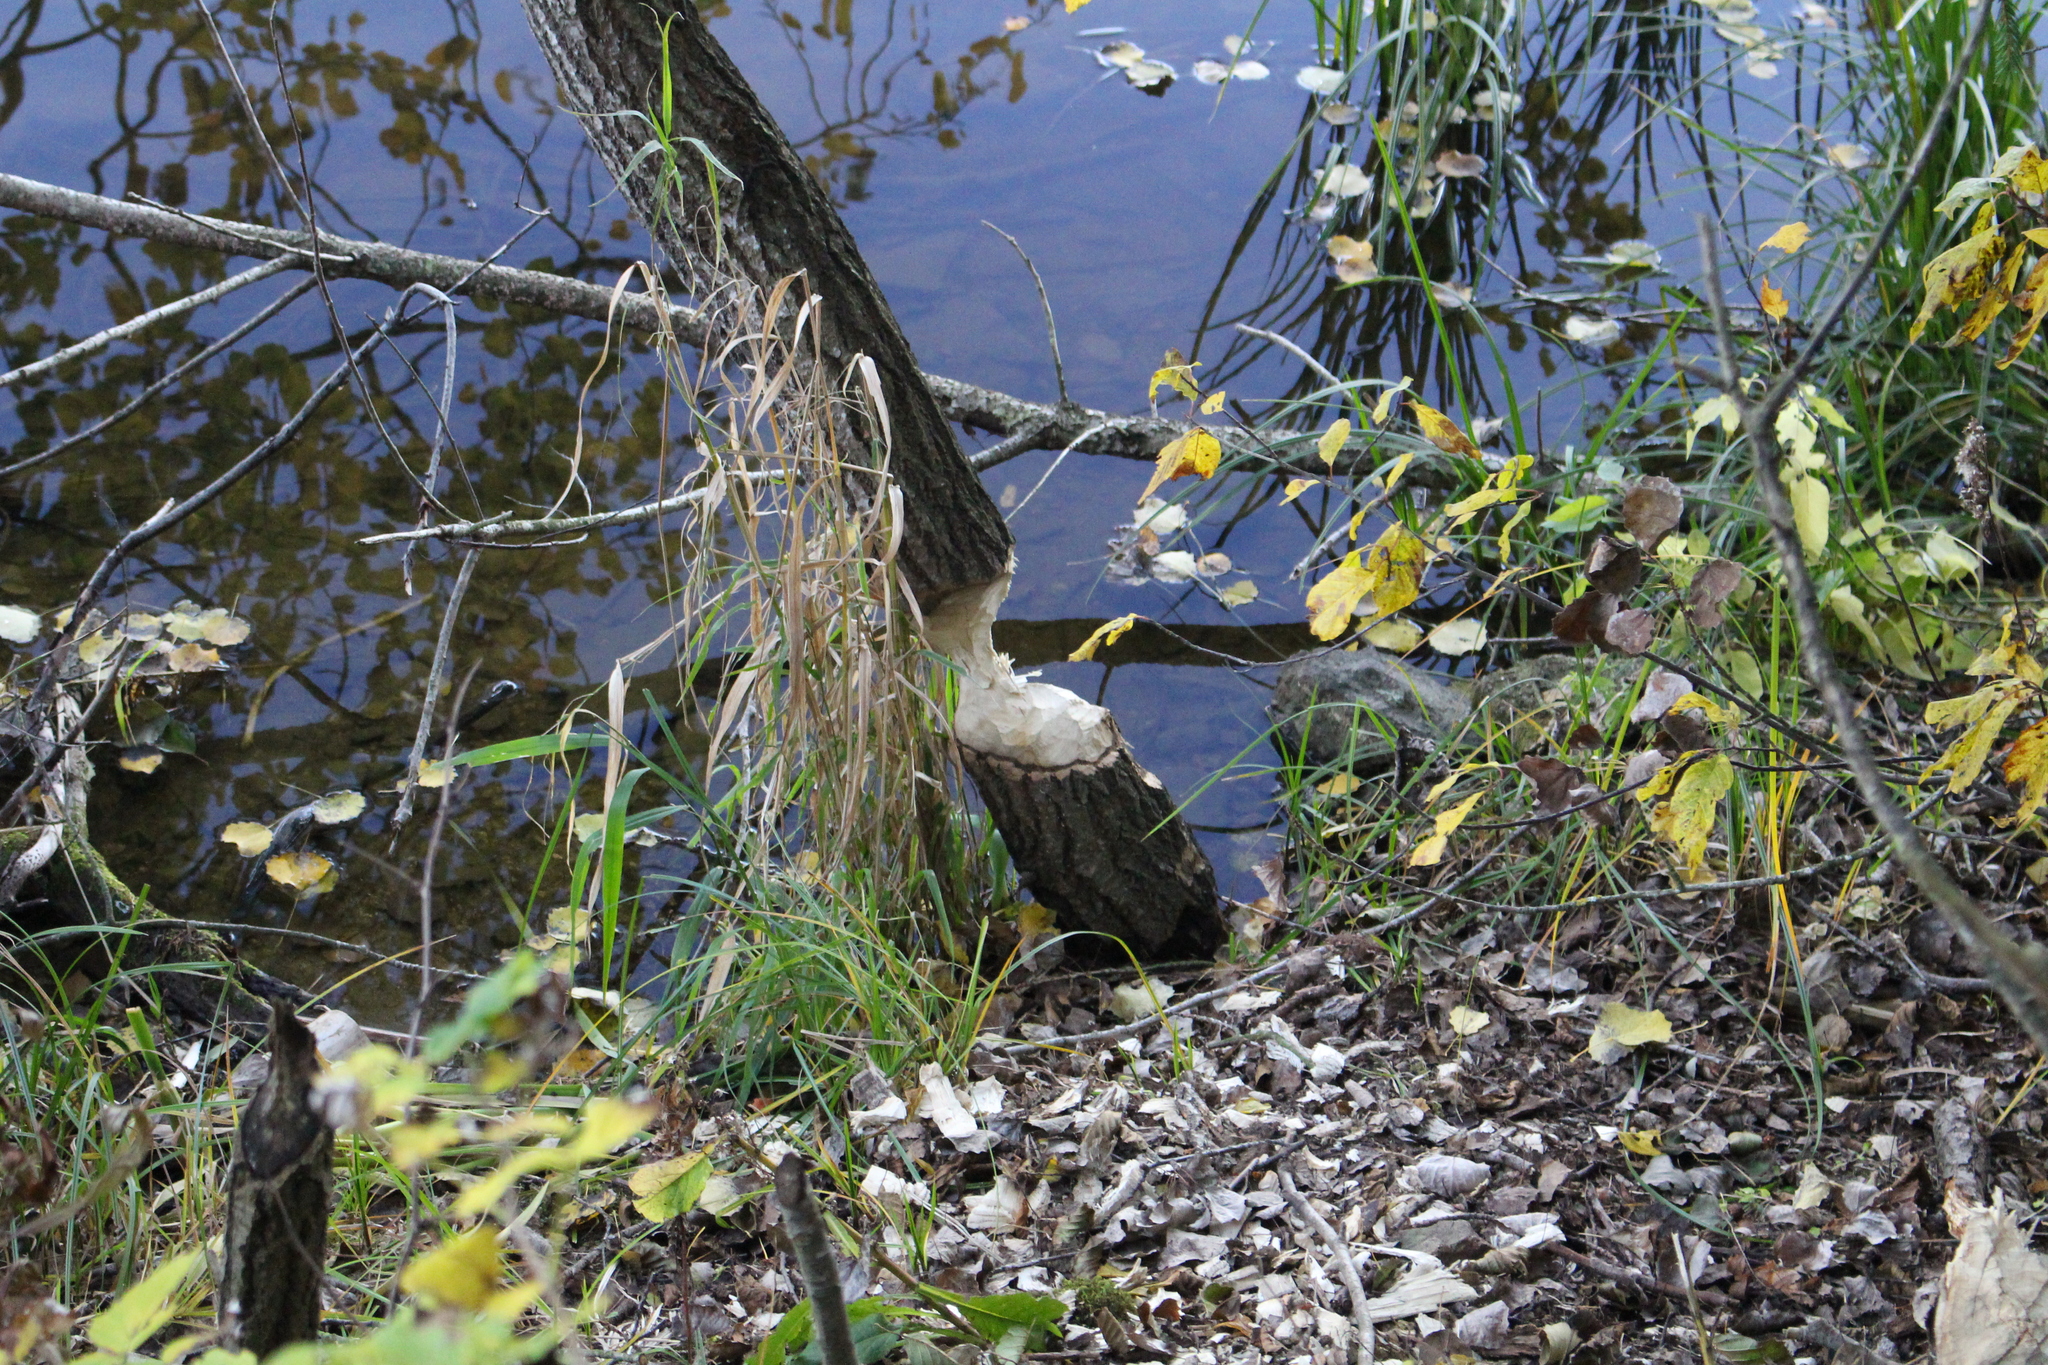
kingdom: Animalia
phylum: Chordata
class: Mammalia
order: Rodentia
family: Castoridae
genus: Castor
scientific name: Castor fiber
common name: Eurasian beaver
